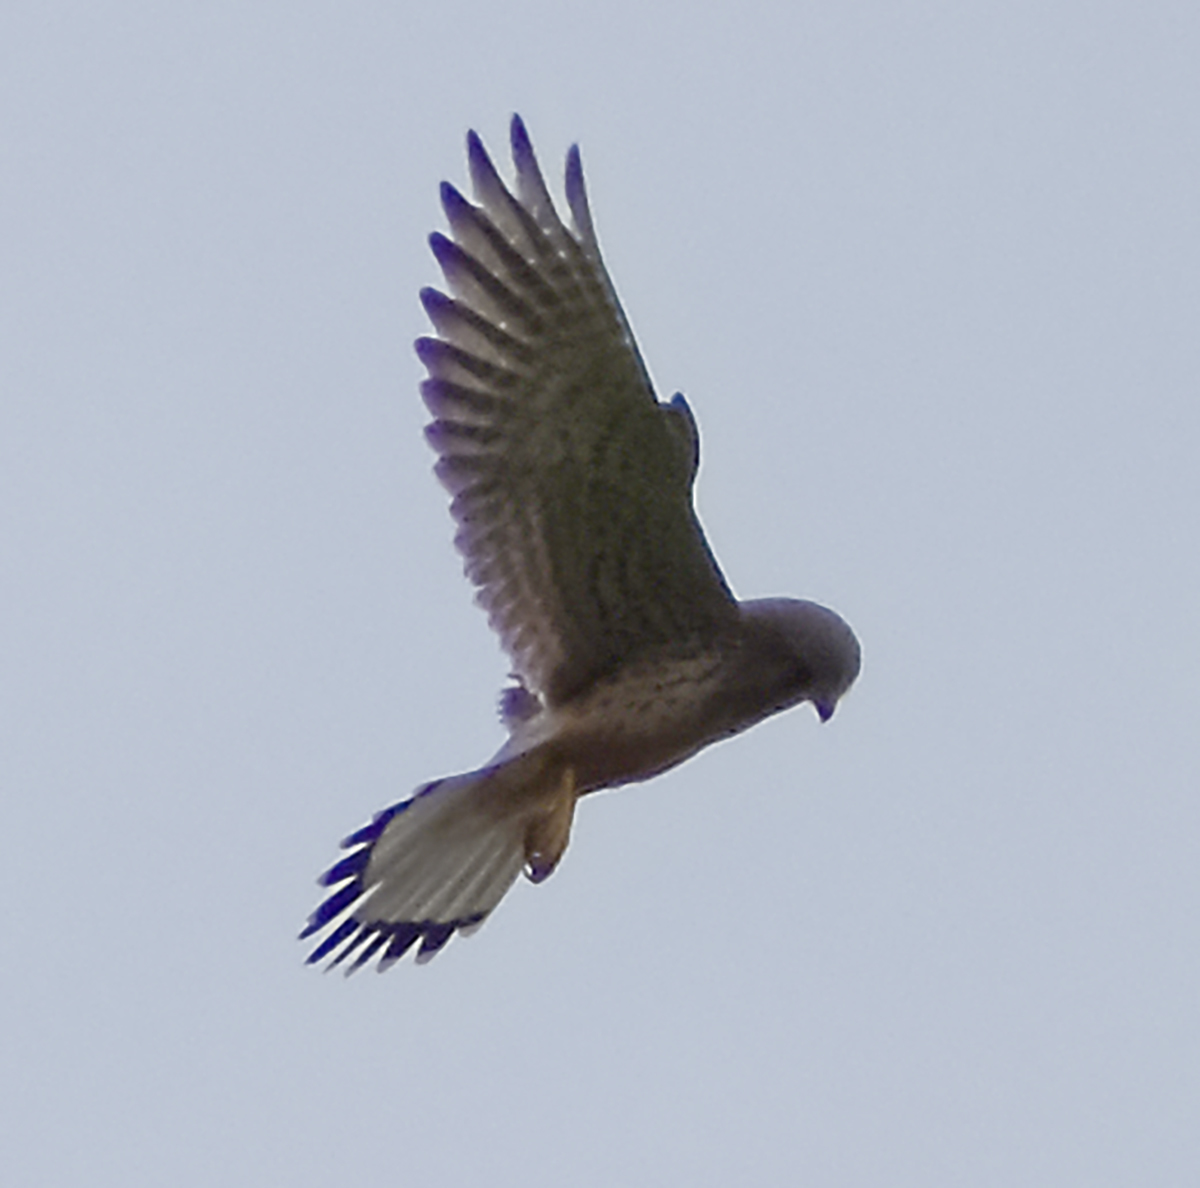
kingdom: Animalia
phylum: Chordata
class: Aves
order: Falconiformes
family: Falconidae
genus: Falco
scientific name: Falco tinnunculus
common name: Common kestrel
